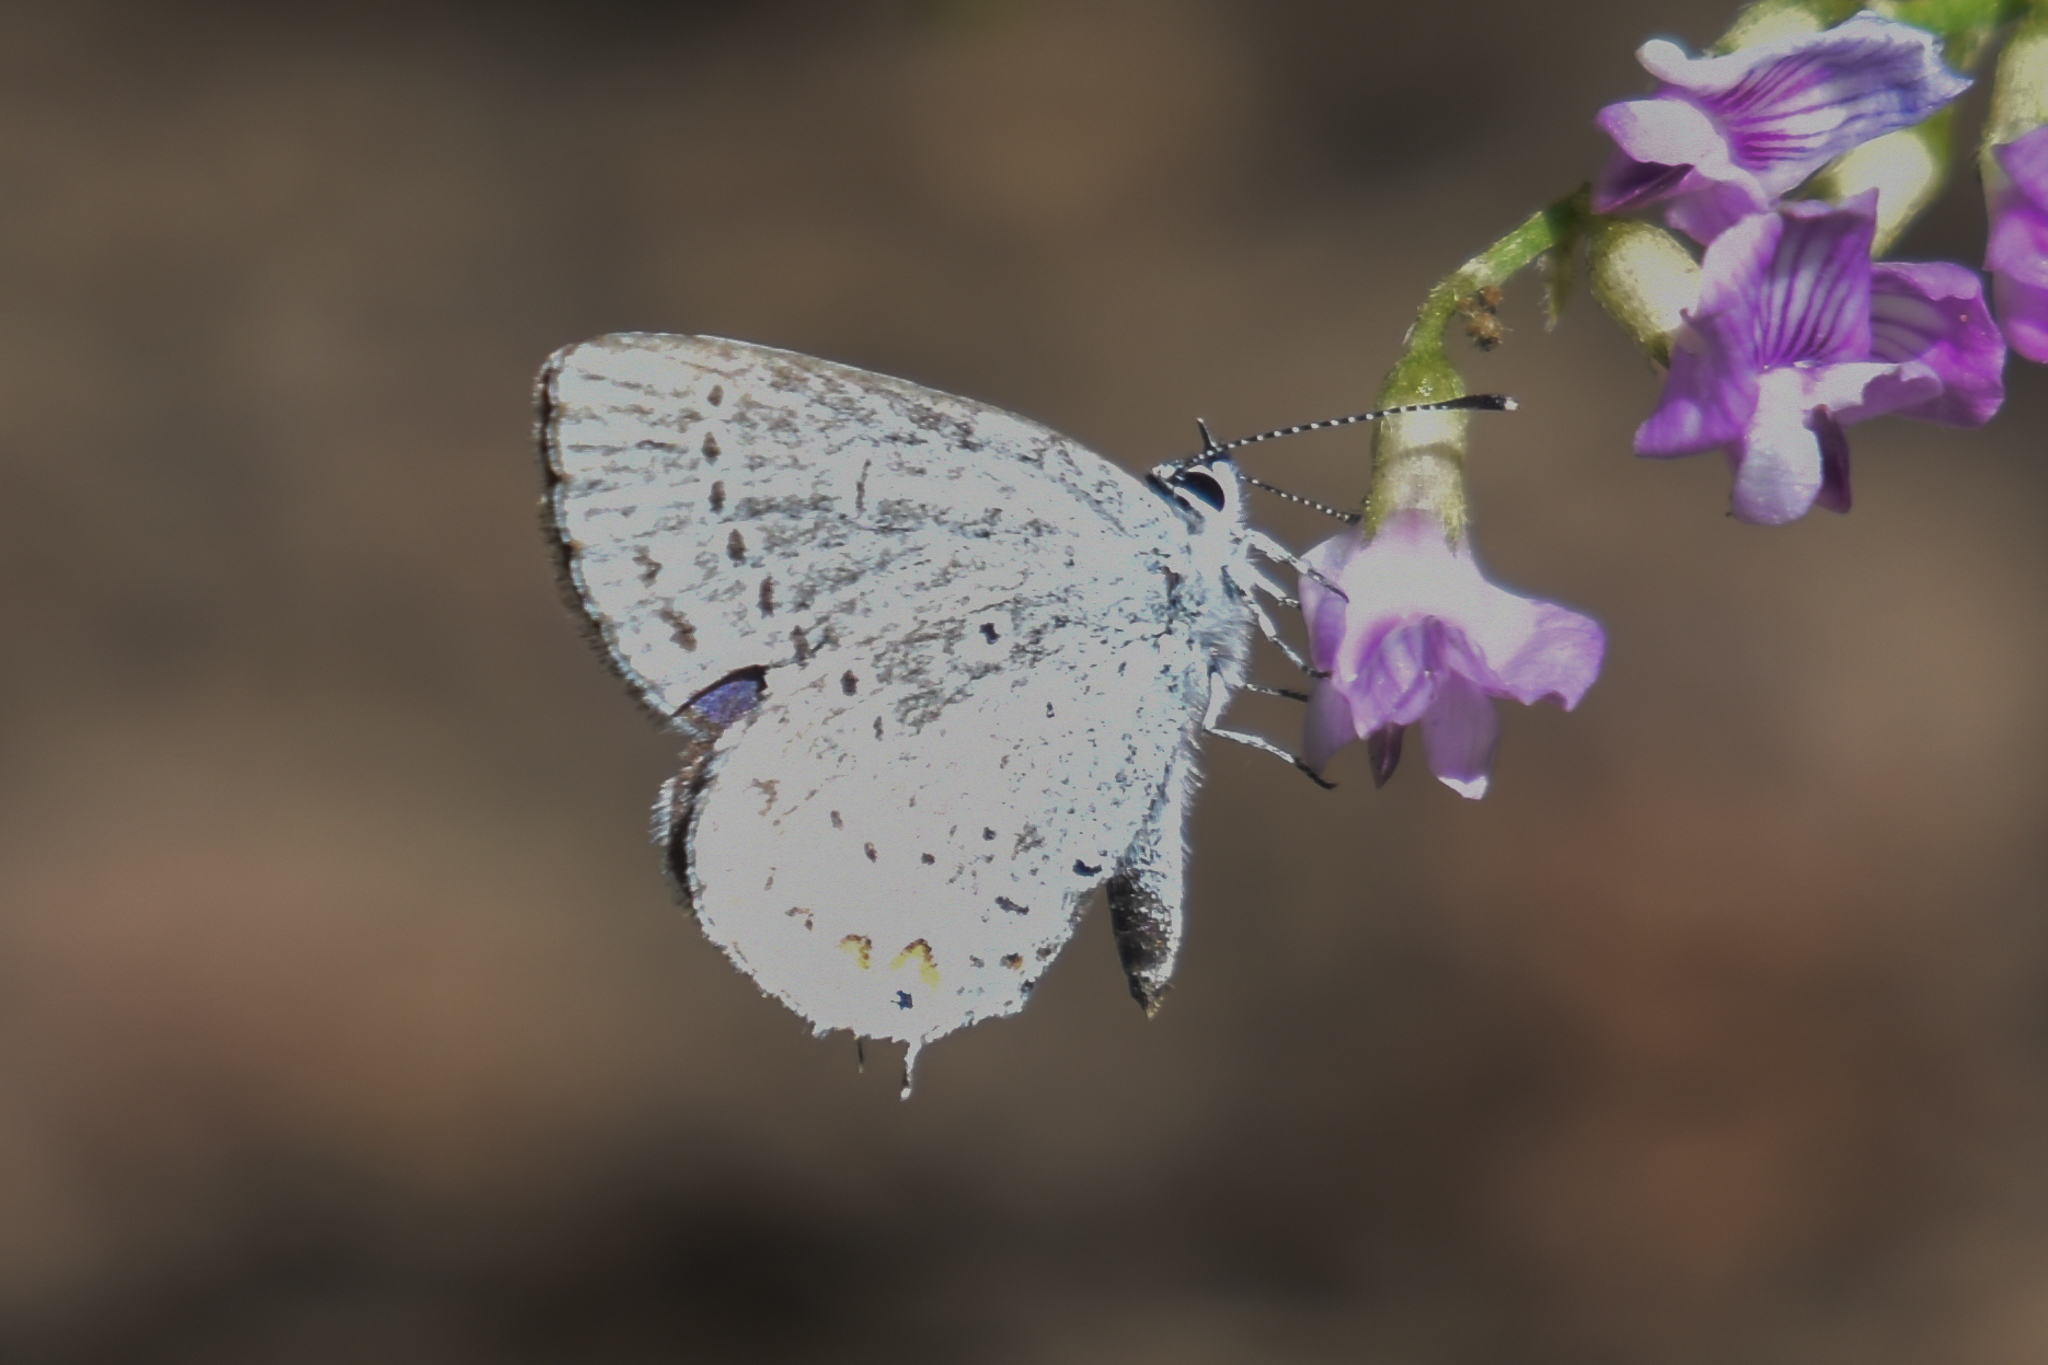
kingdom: Animalia
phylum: Arthropoda
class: Insecta
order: Lepidoptera
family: Lycaenidae
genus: Elkalyce
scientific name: Elkalyce amyntula
